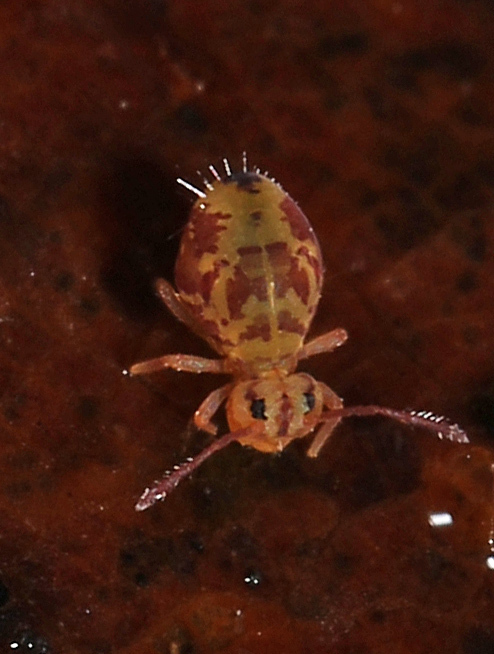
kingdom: Animalia
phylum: Arthropoda
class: Collembola
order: Symphypleona
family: Dicyrtomidae
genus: Dicyrtomina
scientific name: Dicyrtomina ornata
